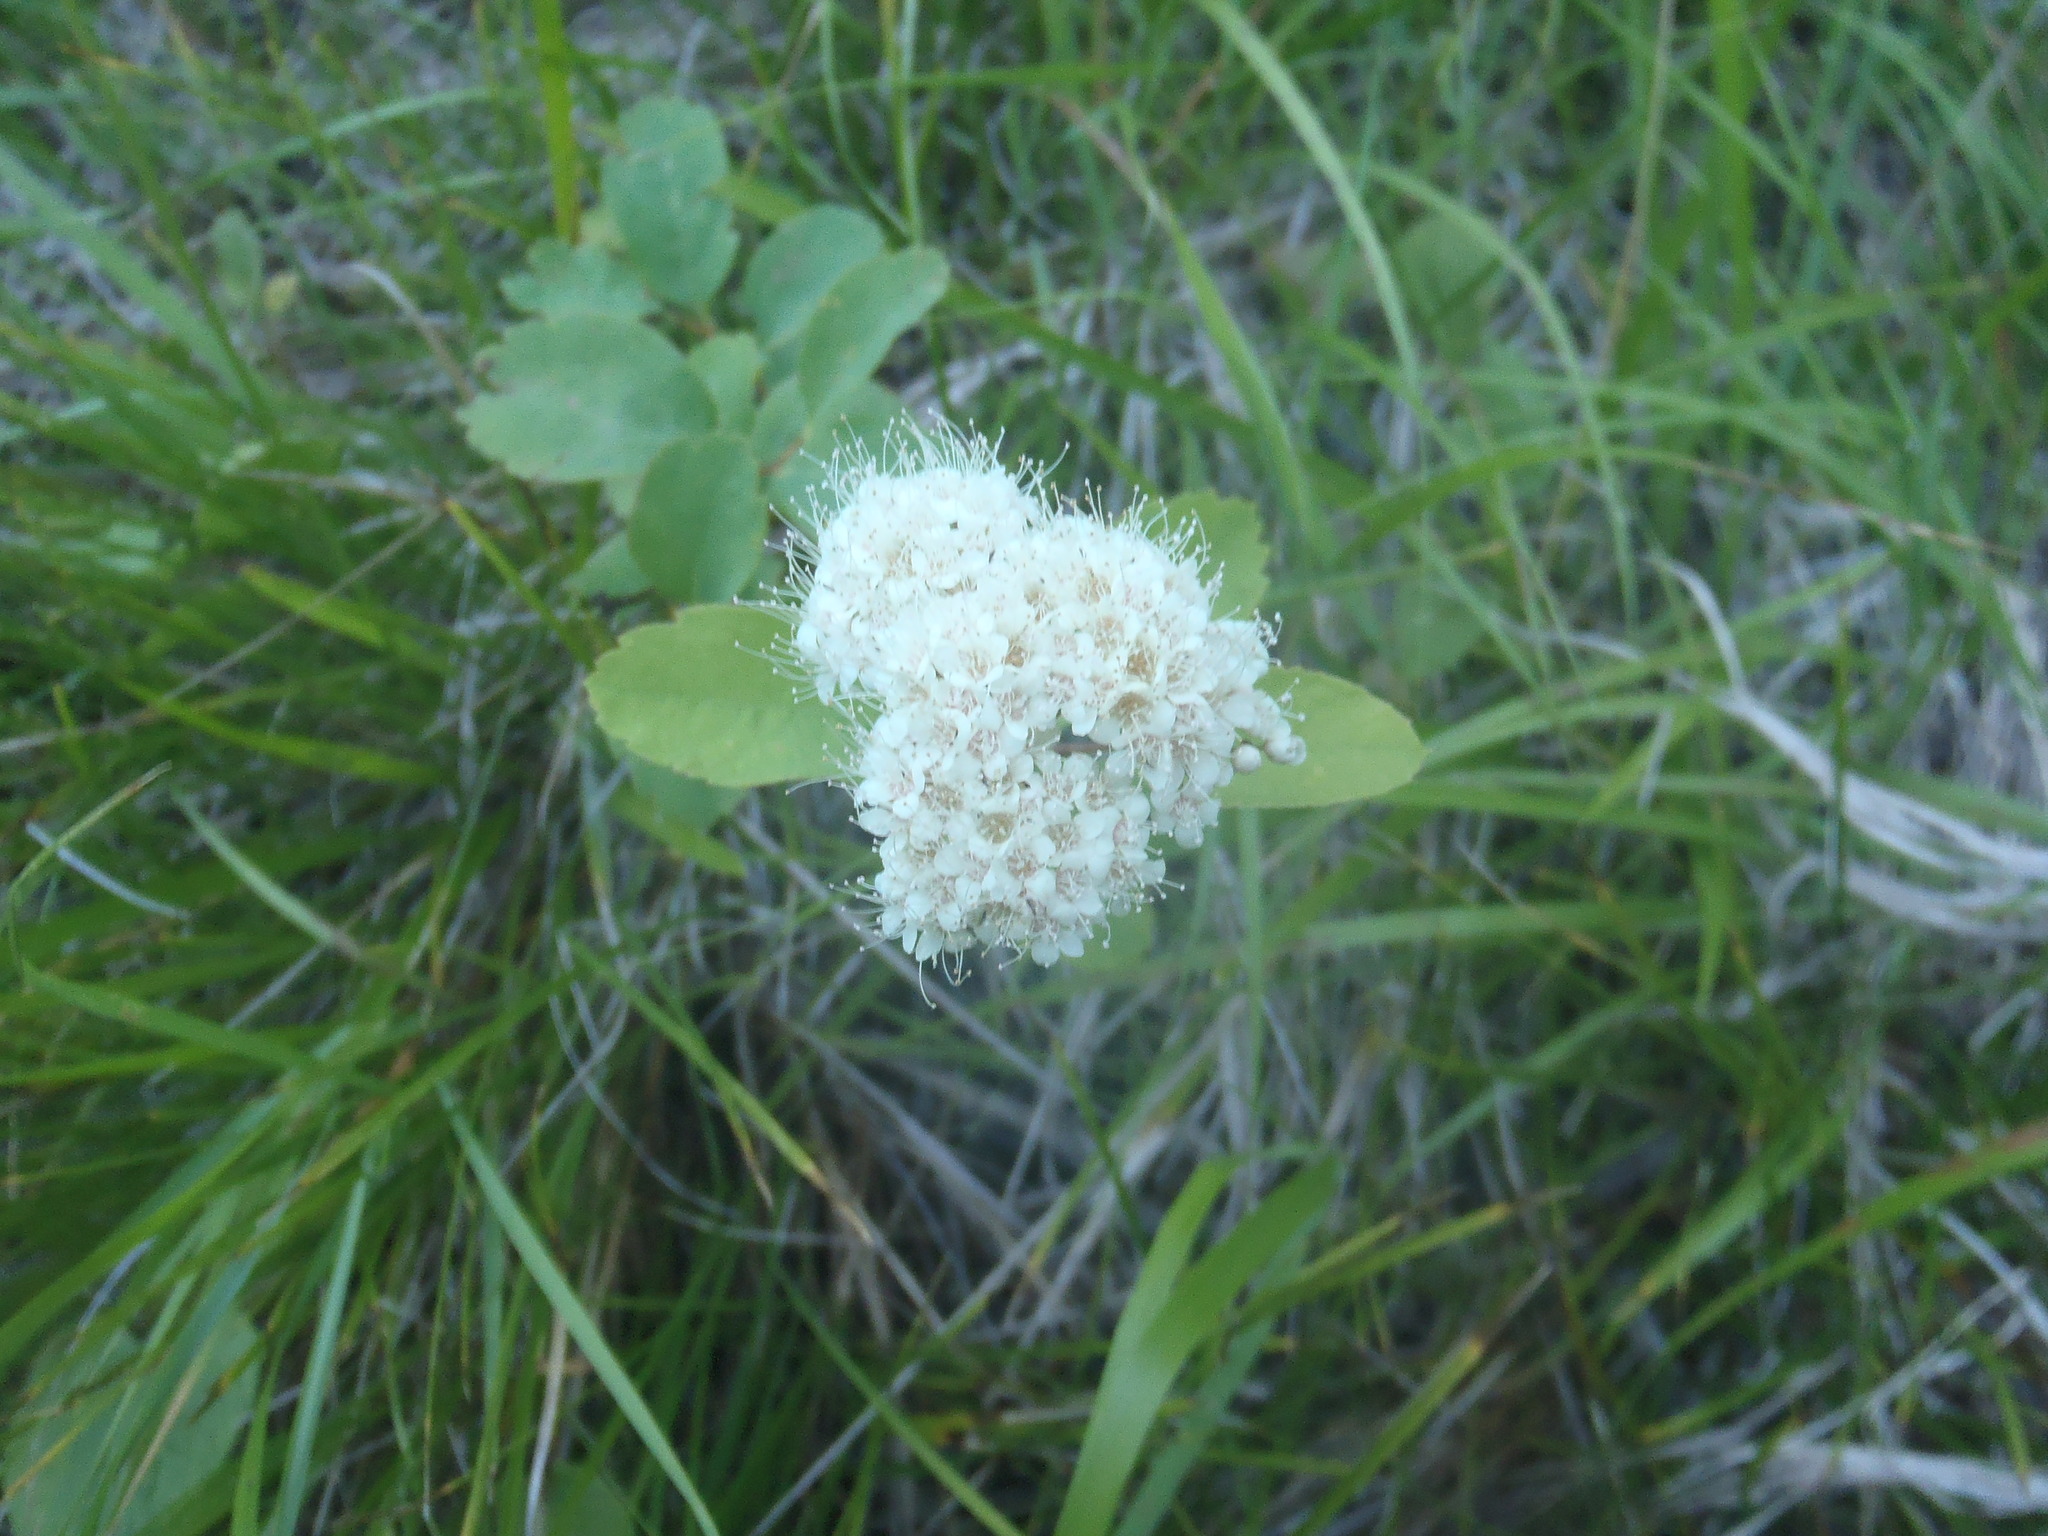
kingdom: Plantae
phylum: Tracheophyta
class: Magnoliopsida
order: Rosales
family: Rosaceae
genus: Spiraea
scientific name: Spiraea lucida
